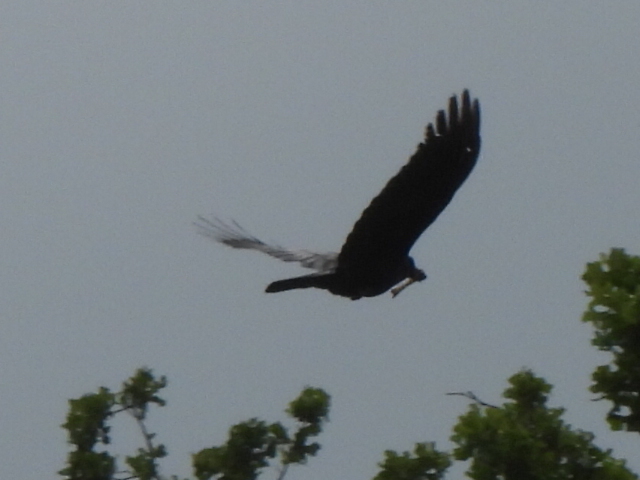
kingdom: Animalia
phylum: Chordata
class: Aves
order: Passeriformes
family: Corvidae
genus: Corvus
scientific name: Corvus brachyrhynchos
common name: American crow
